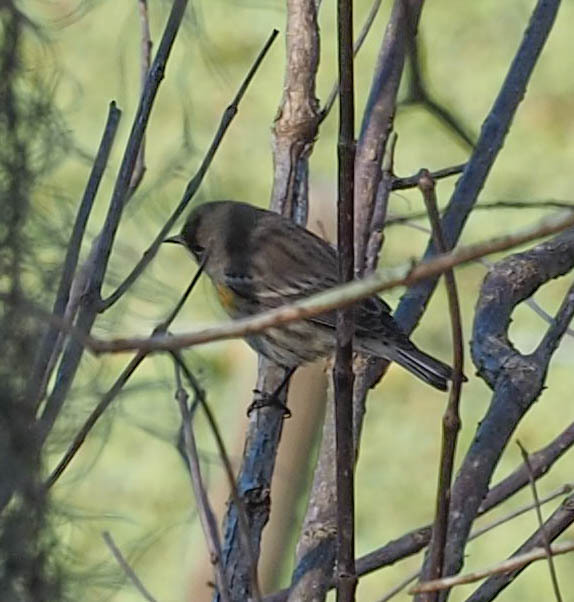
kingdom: Animalia
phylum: Chordata
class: Aves
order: Passeriformes
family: Parulidae
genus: Setophaga
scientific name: Setophaga coronata
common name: Myrtle warbler
